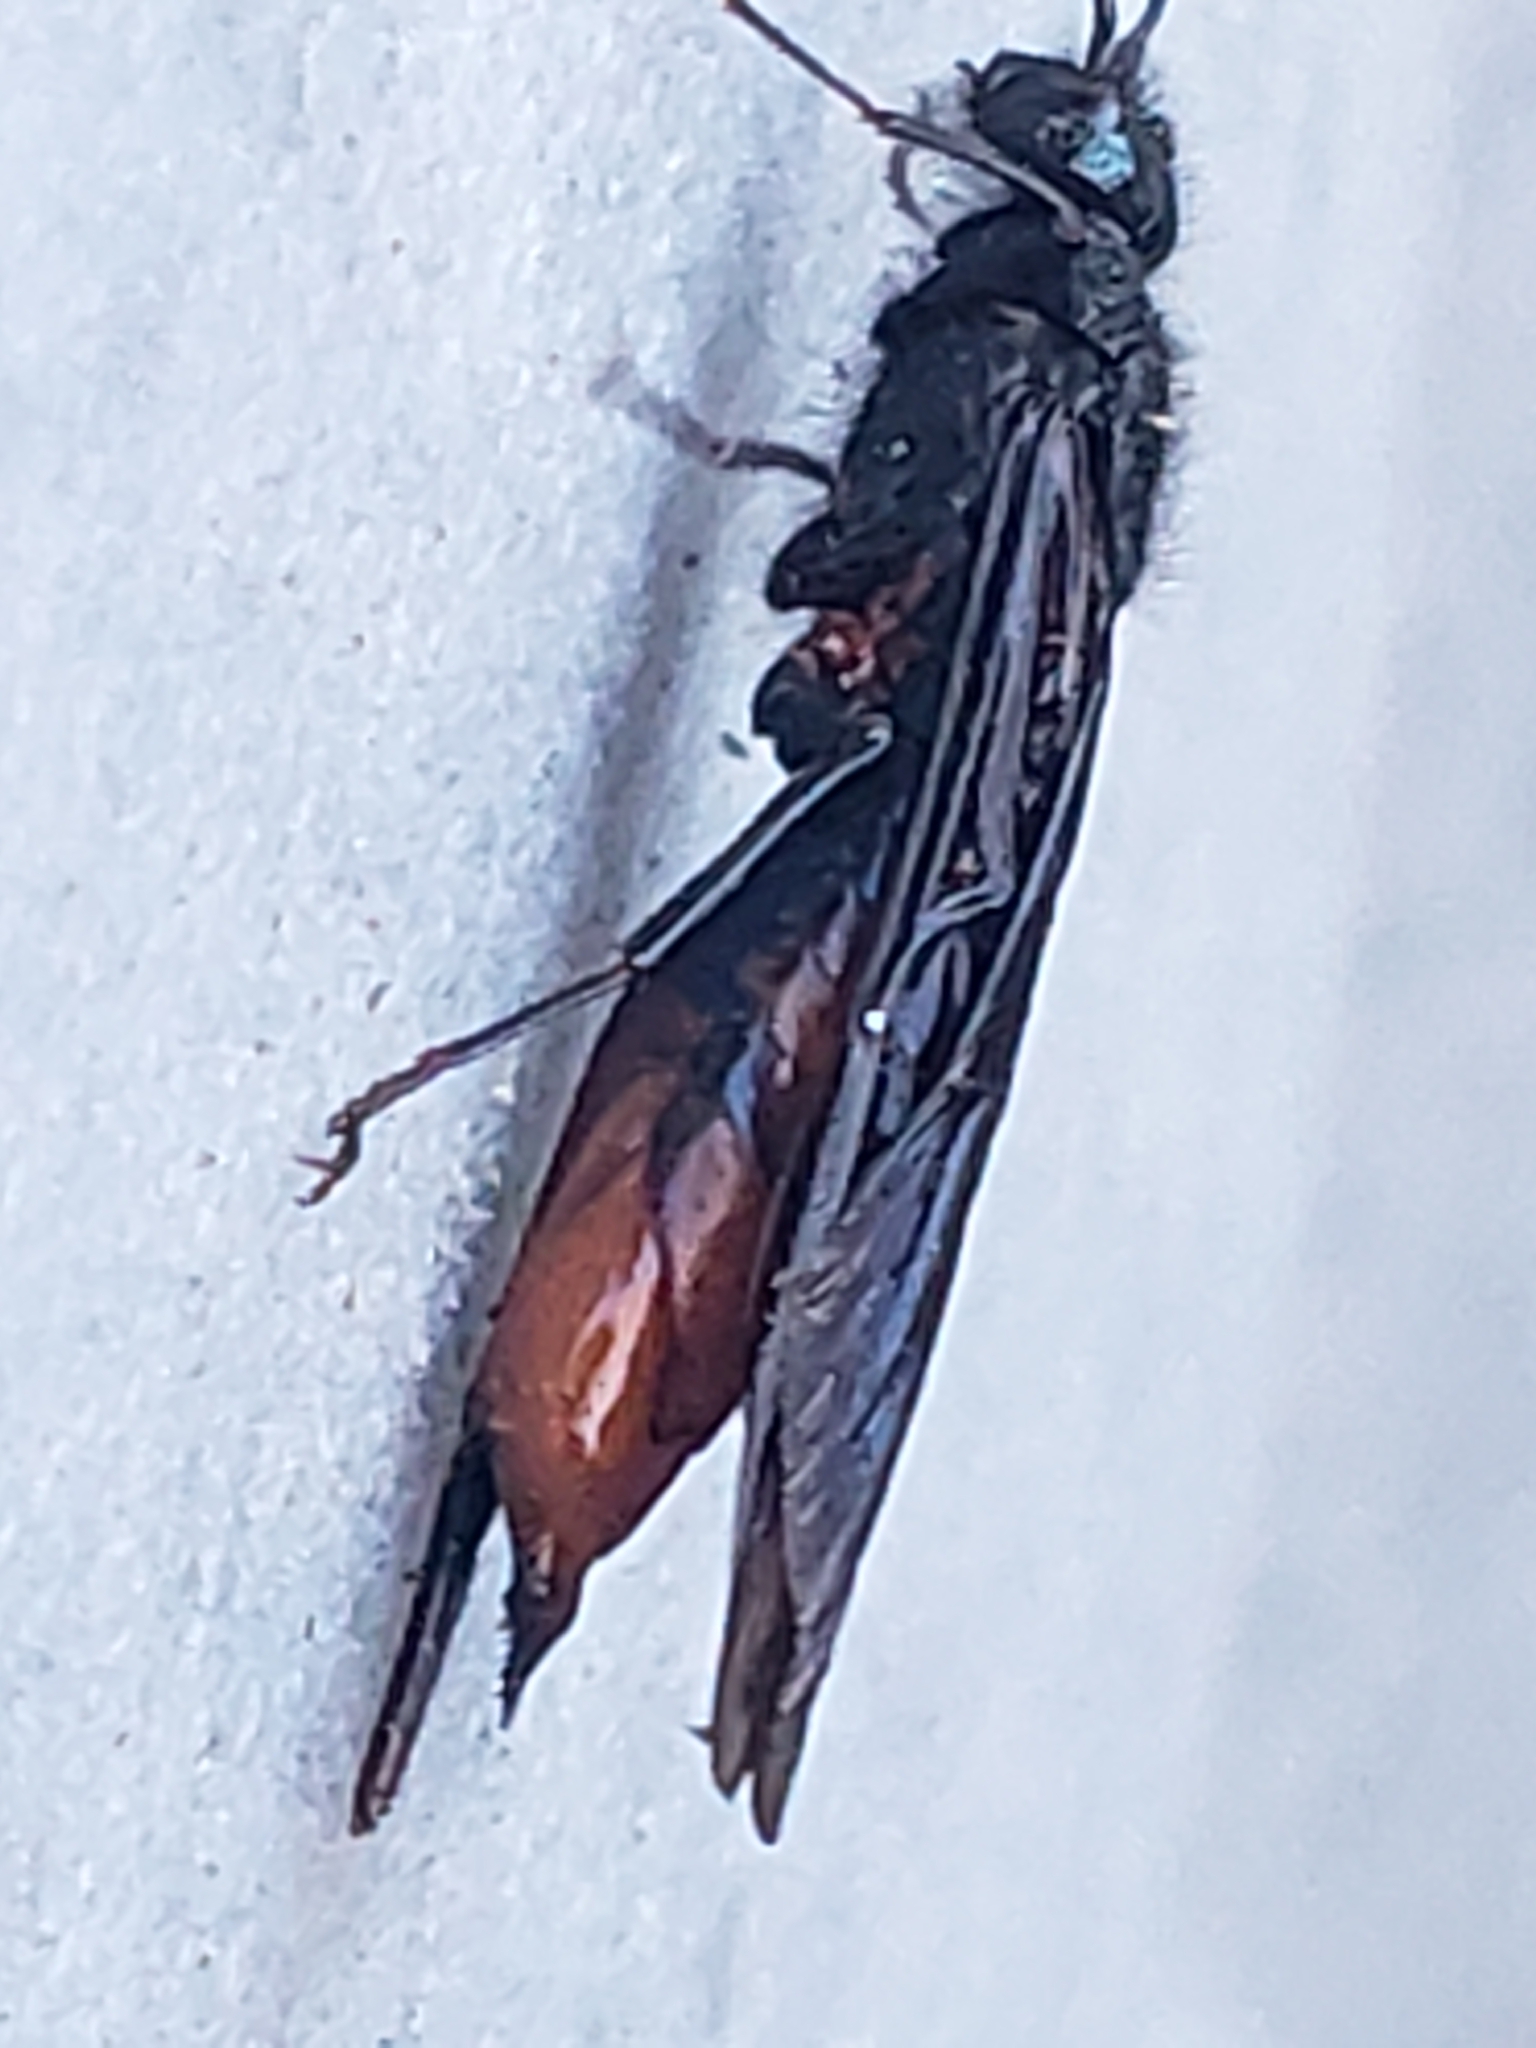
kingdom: Animalia
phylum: Arthropoda
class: Insecta
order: Hymenoptera
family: Siricidae
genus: Sirex
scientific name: Sirex juvencus
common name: Blue horntail
